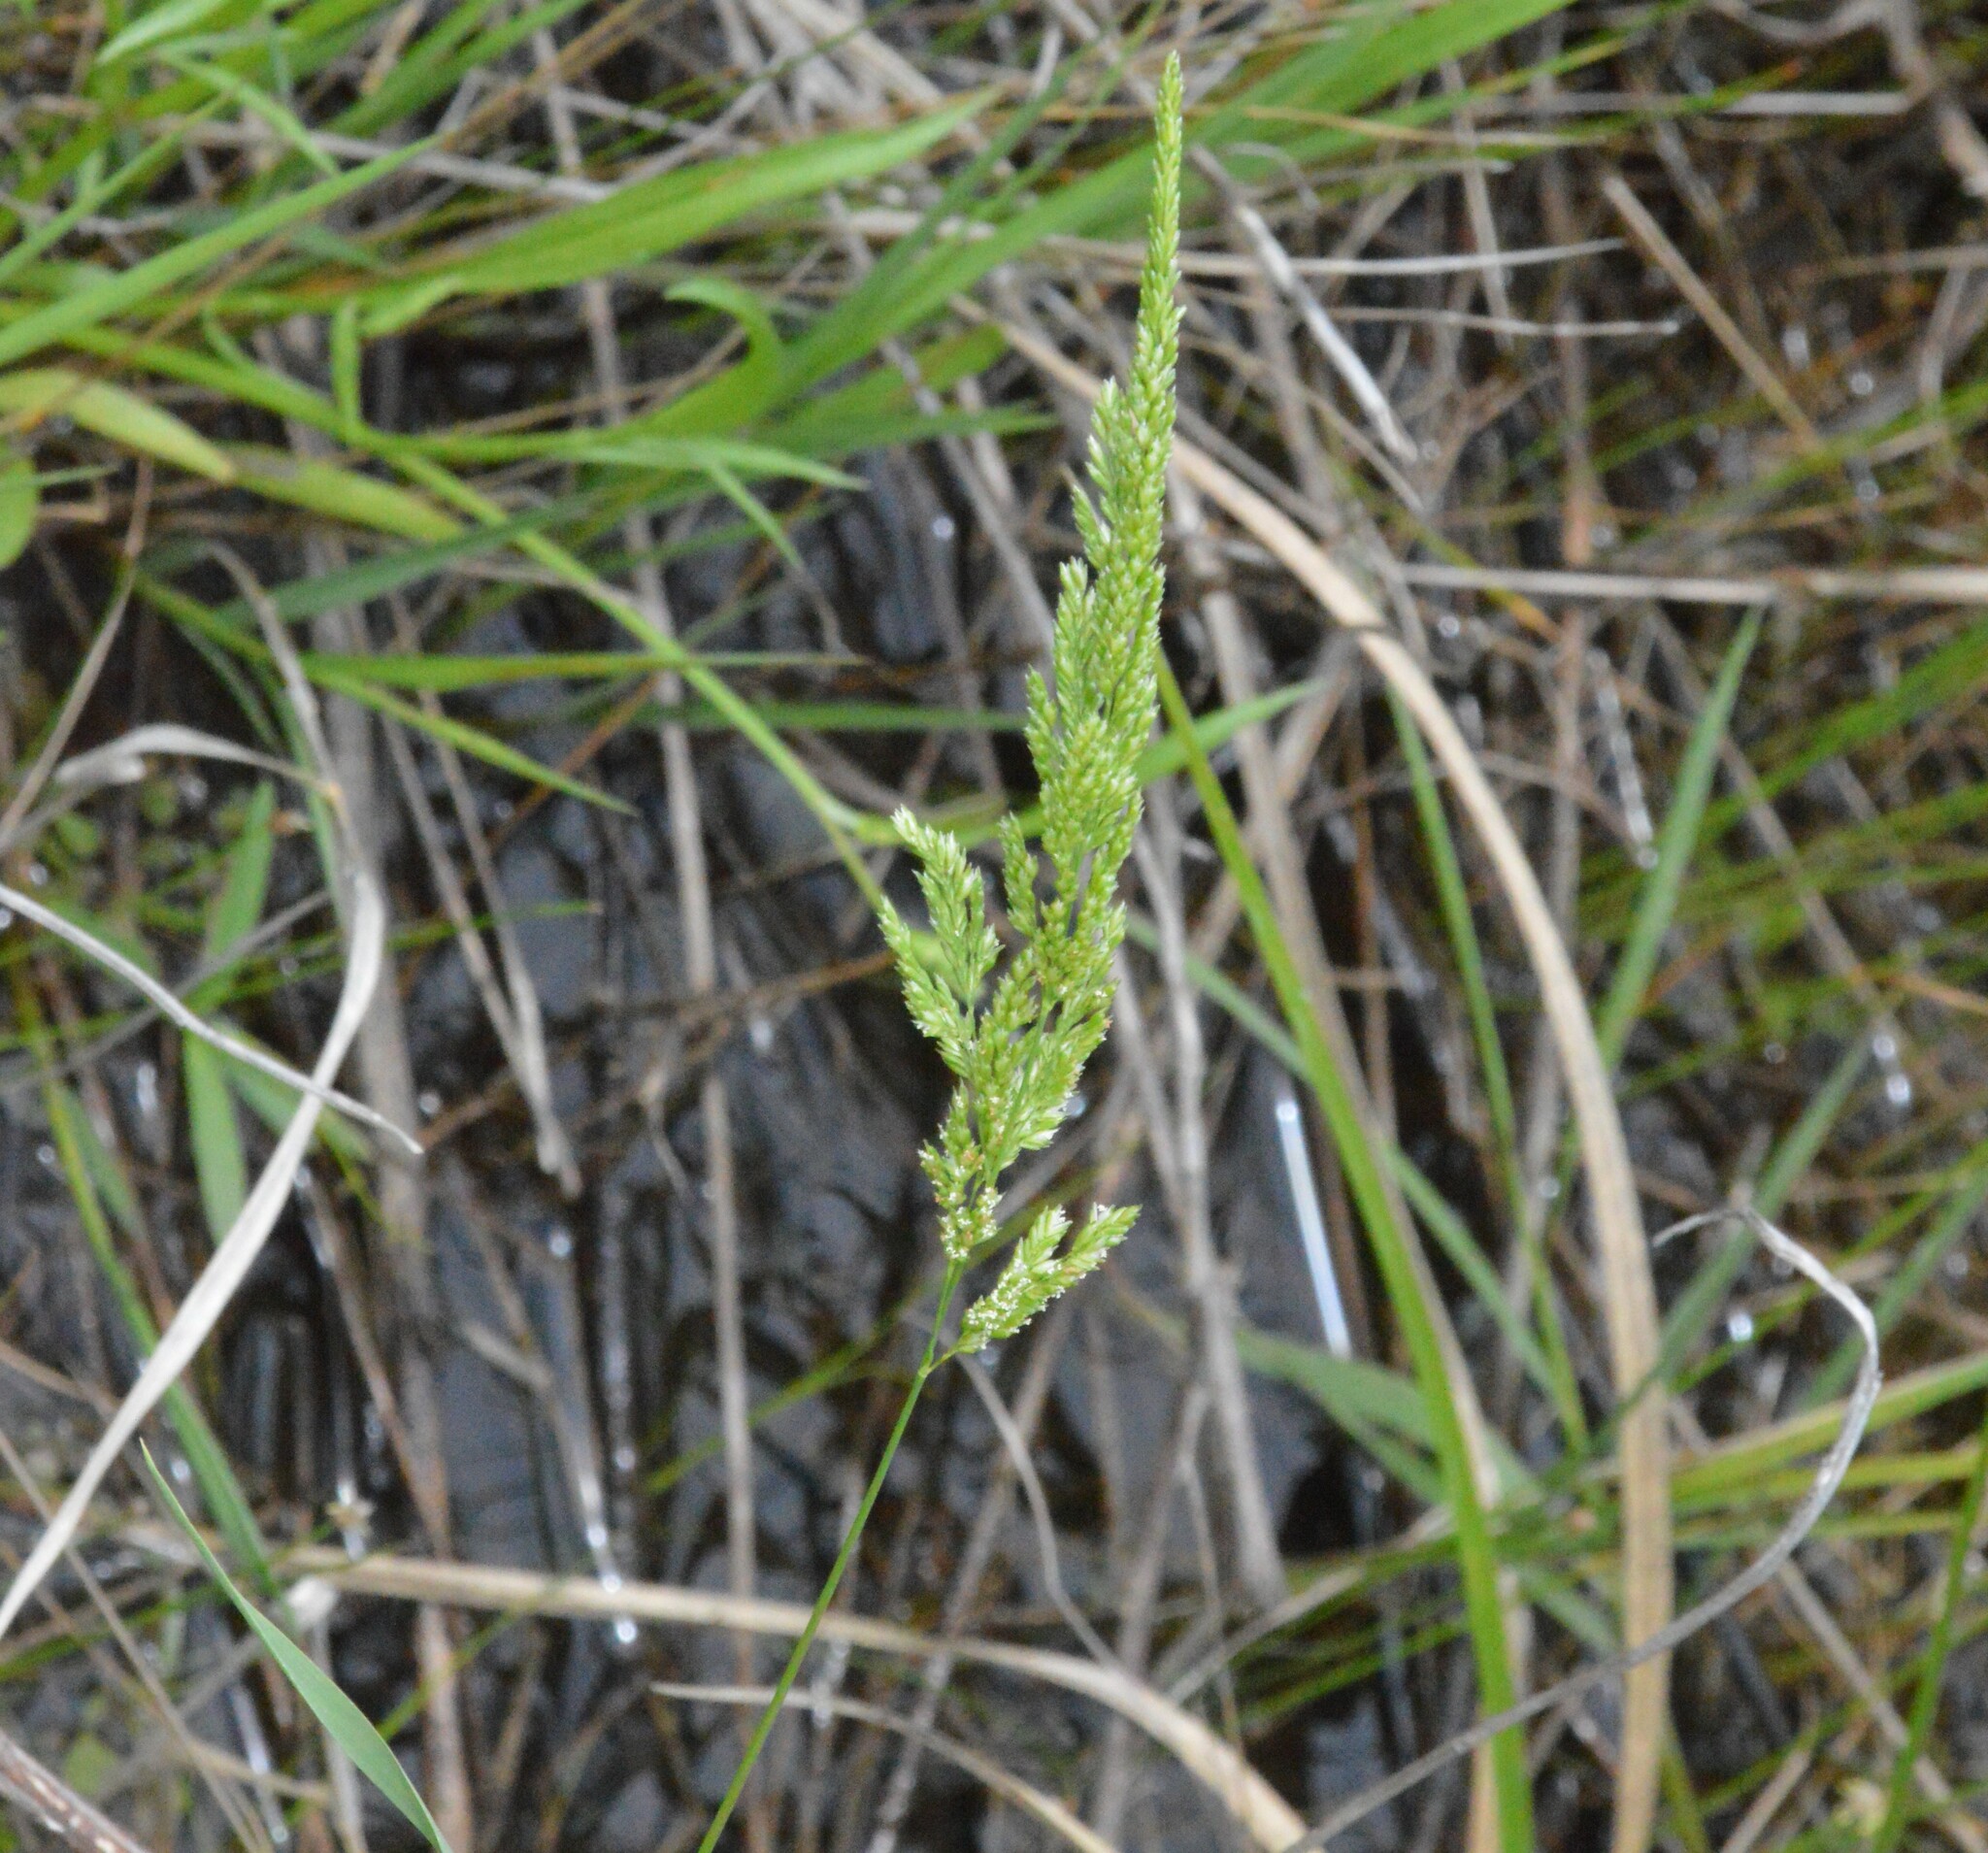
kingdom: Plantae
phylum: Tracheophyta
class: Liliopsida
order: Poales
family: Poaceae
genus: Sphenopholis
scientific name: Sphenopholis obtusata
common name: Prairie grass
